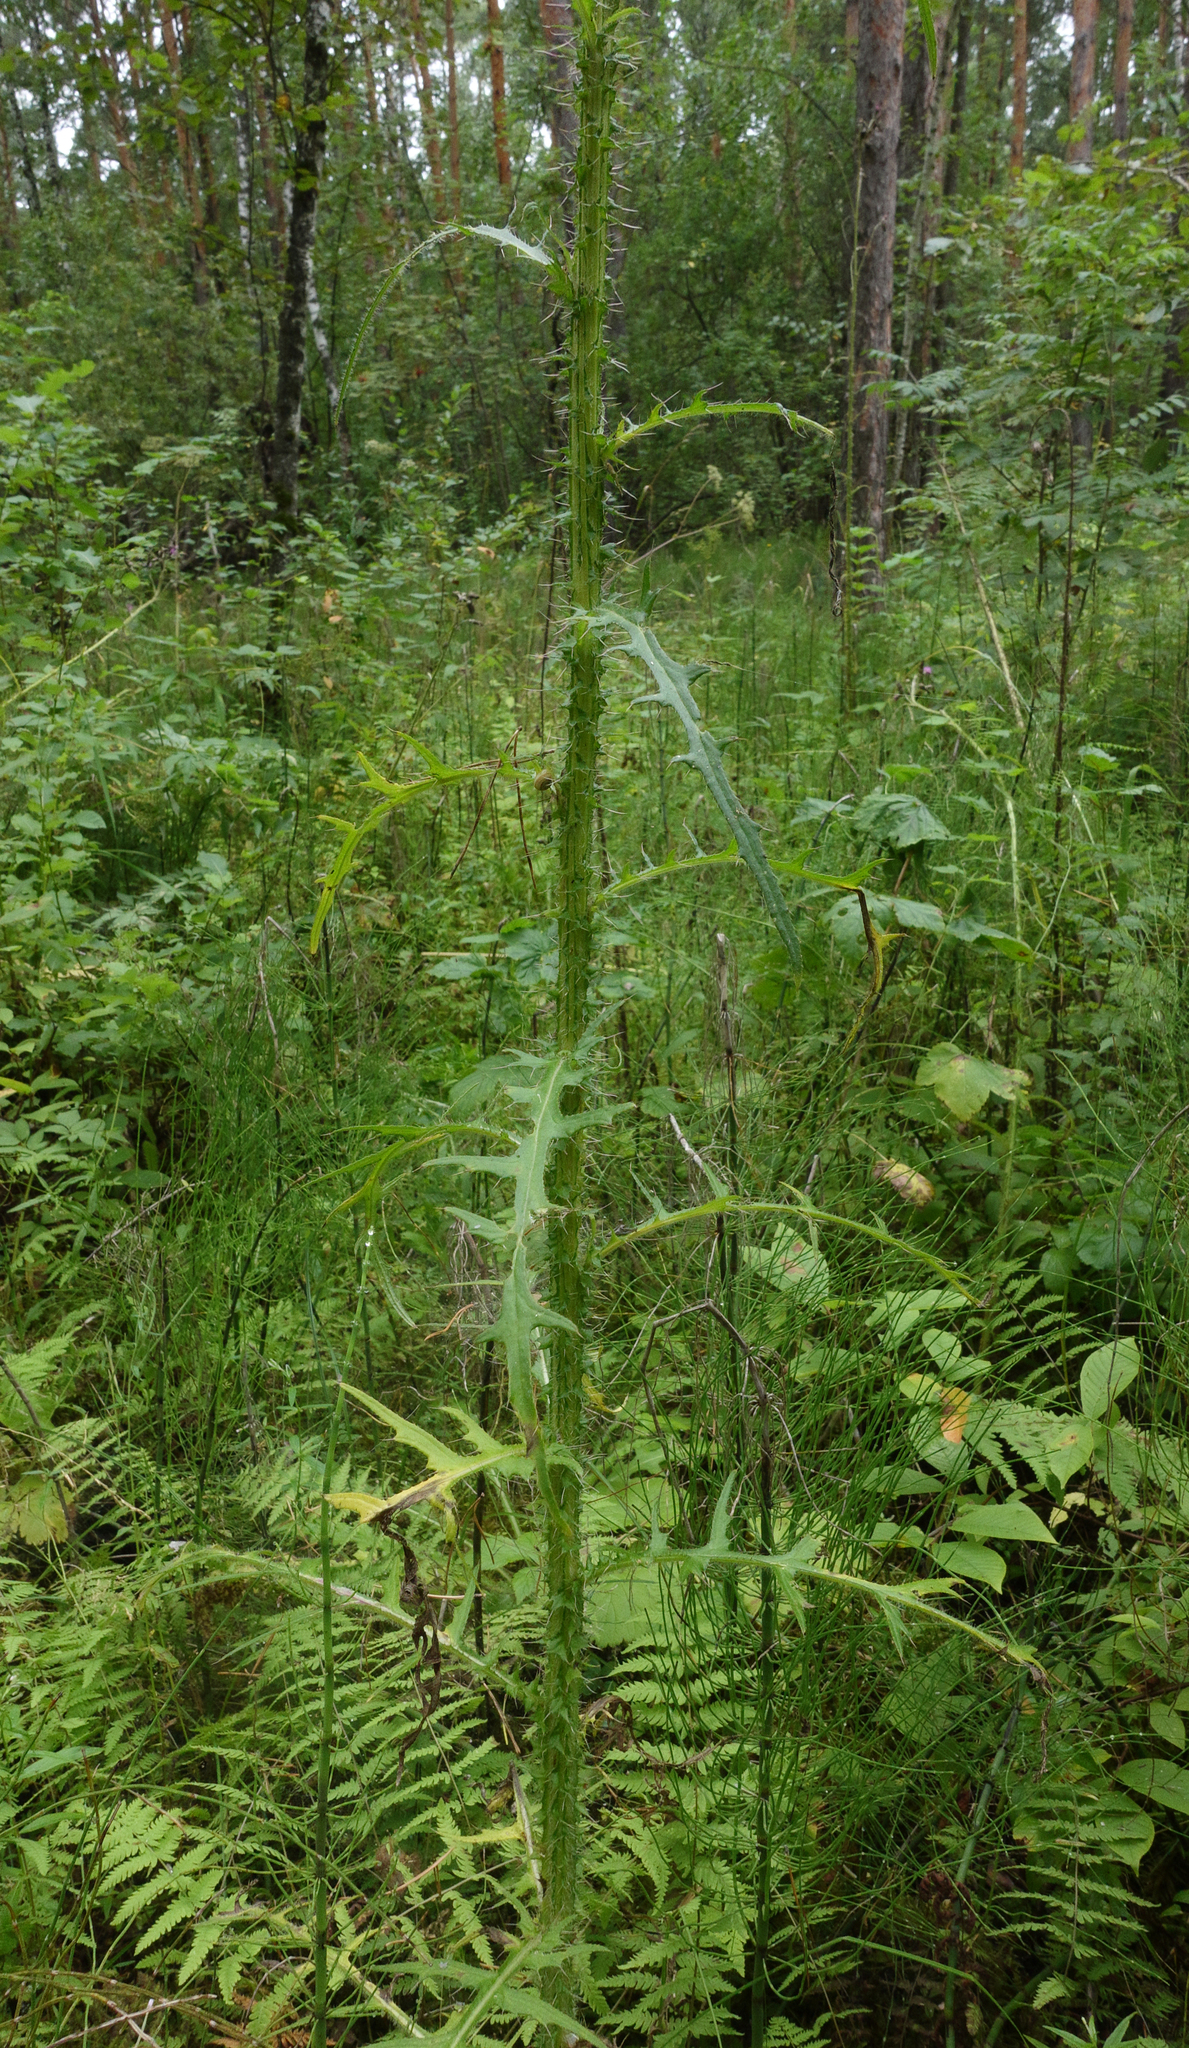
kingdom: Plantae
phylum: Tracheophyta
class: Magnoliopsida
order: Asterales
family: Asteraceae
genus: Cirsium
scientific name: Cirsium palustre
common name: Marsh thistle
